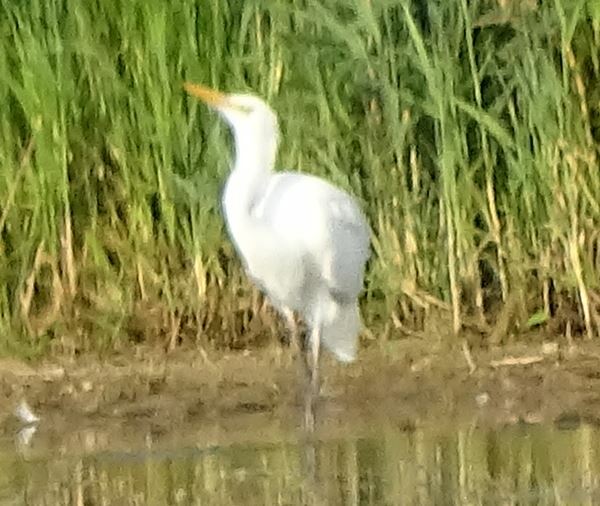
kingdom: Animalia
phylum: Chordata
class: Aves
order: Pelecaniformes
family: Ardeidae
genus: Ardea
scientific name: Ardea alba
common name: Great egret
